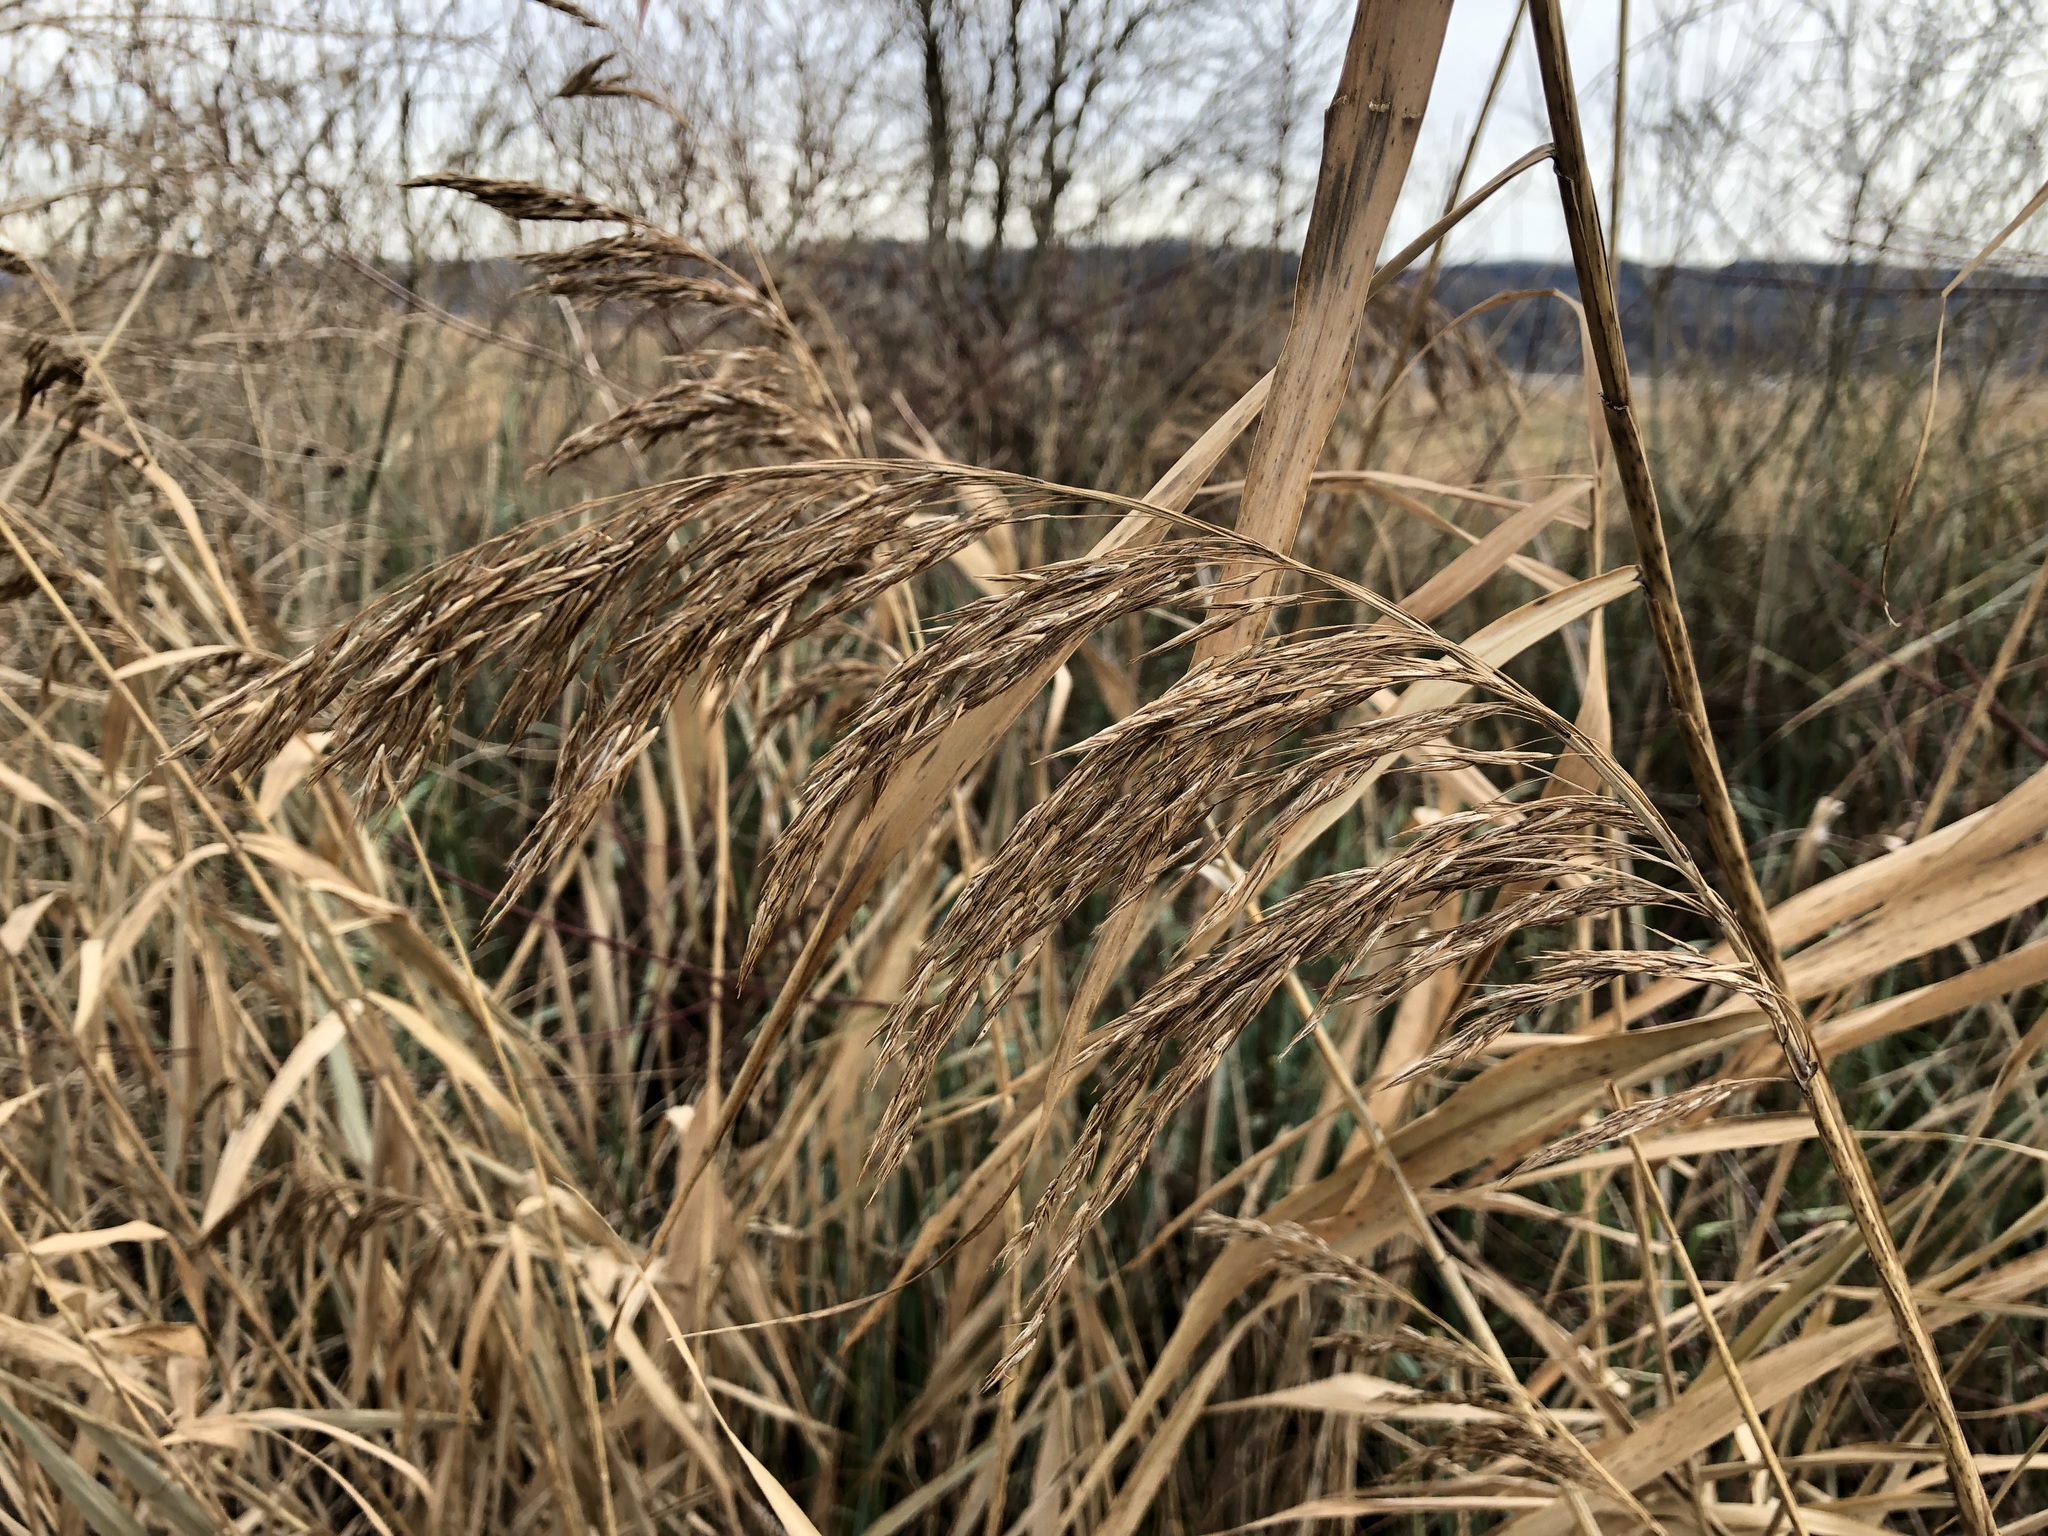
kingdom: Plantae
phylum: Tracheophyta
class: Liliopsida
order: Poales
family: Poaceae
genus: Phragmites
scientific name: Phragmites australis
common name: Common reed
